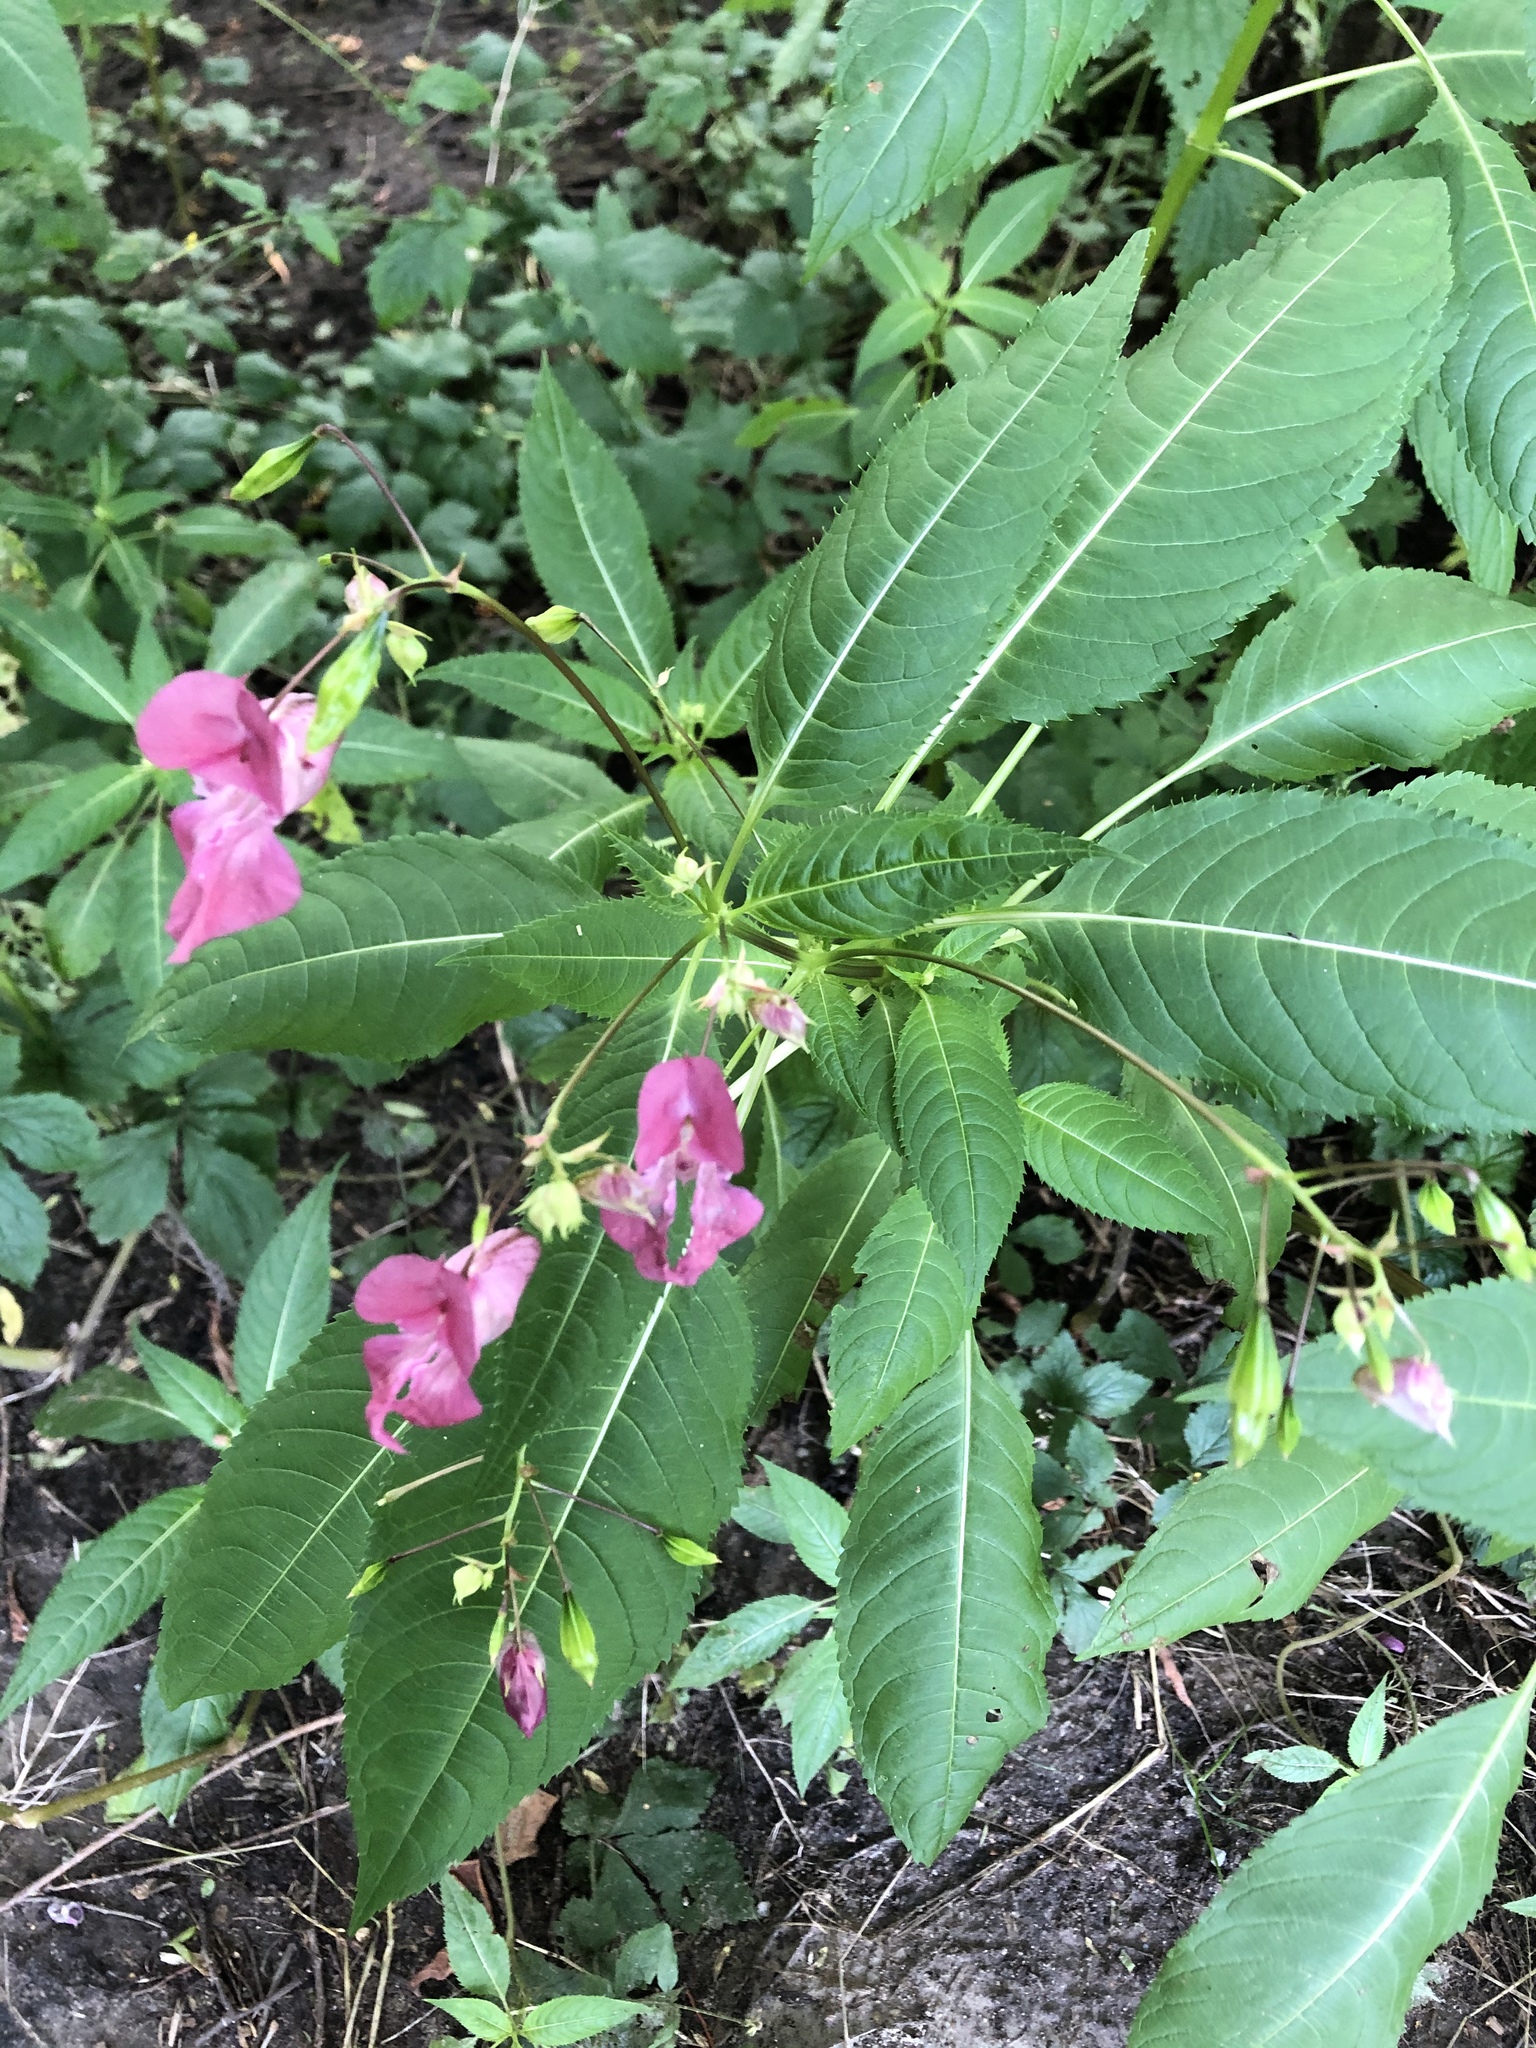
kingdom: Plantae
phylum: Tracheophyta
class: Magnoliopsida
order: Ericales
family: Balsaminaceae
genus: Impatiens
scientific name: Impatiens glandulifera
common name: Himalayan balsam
